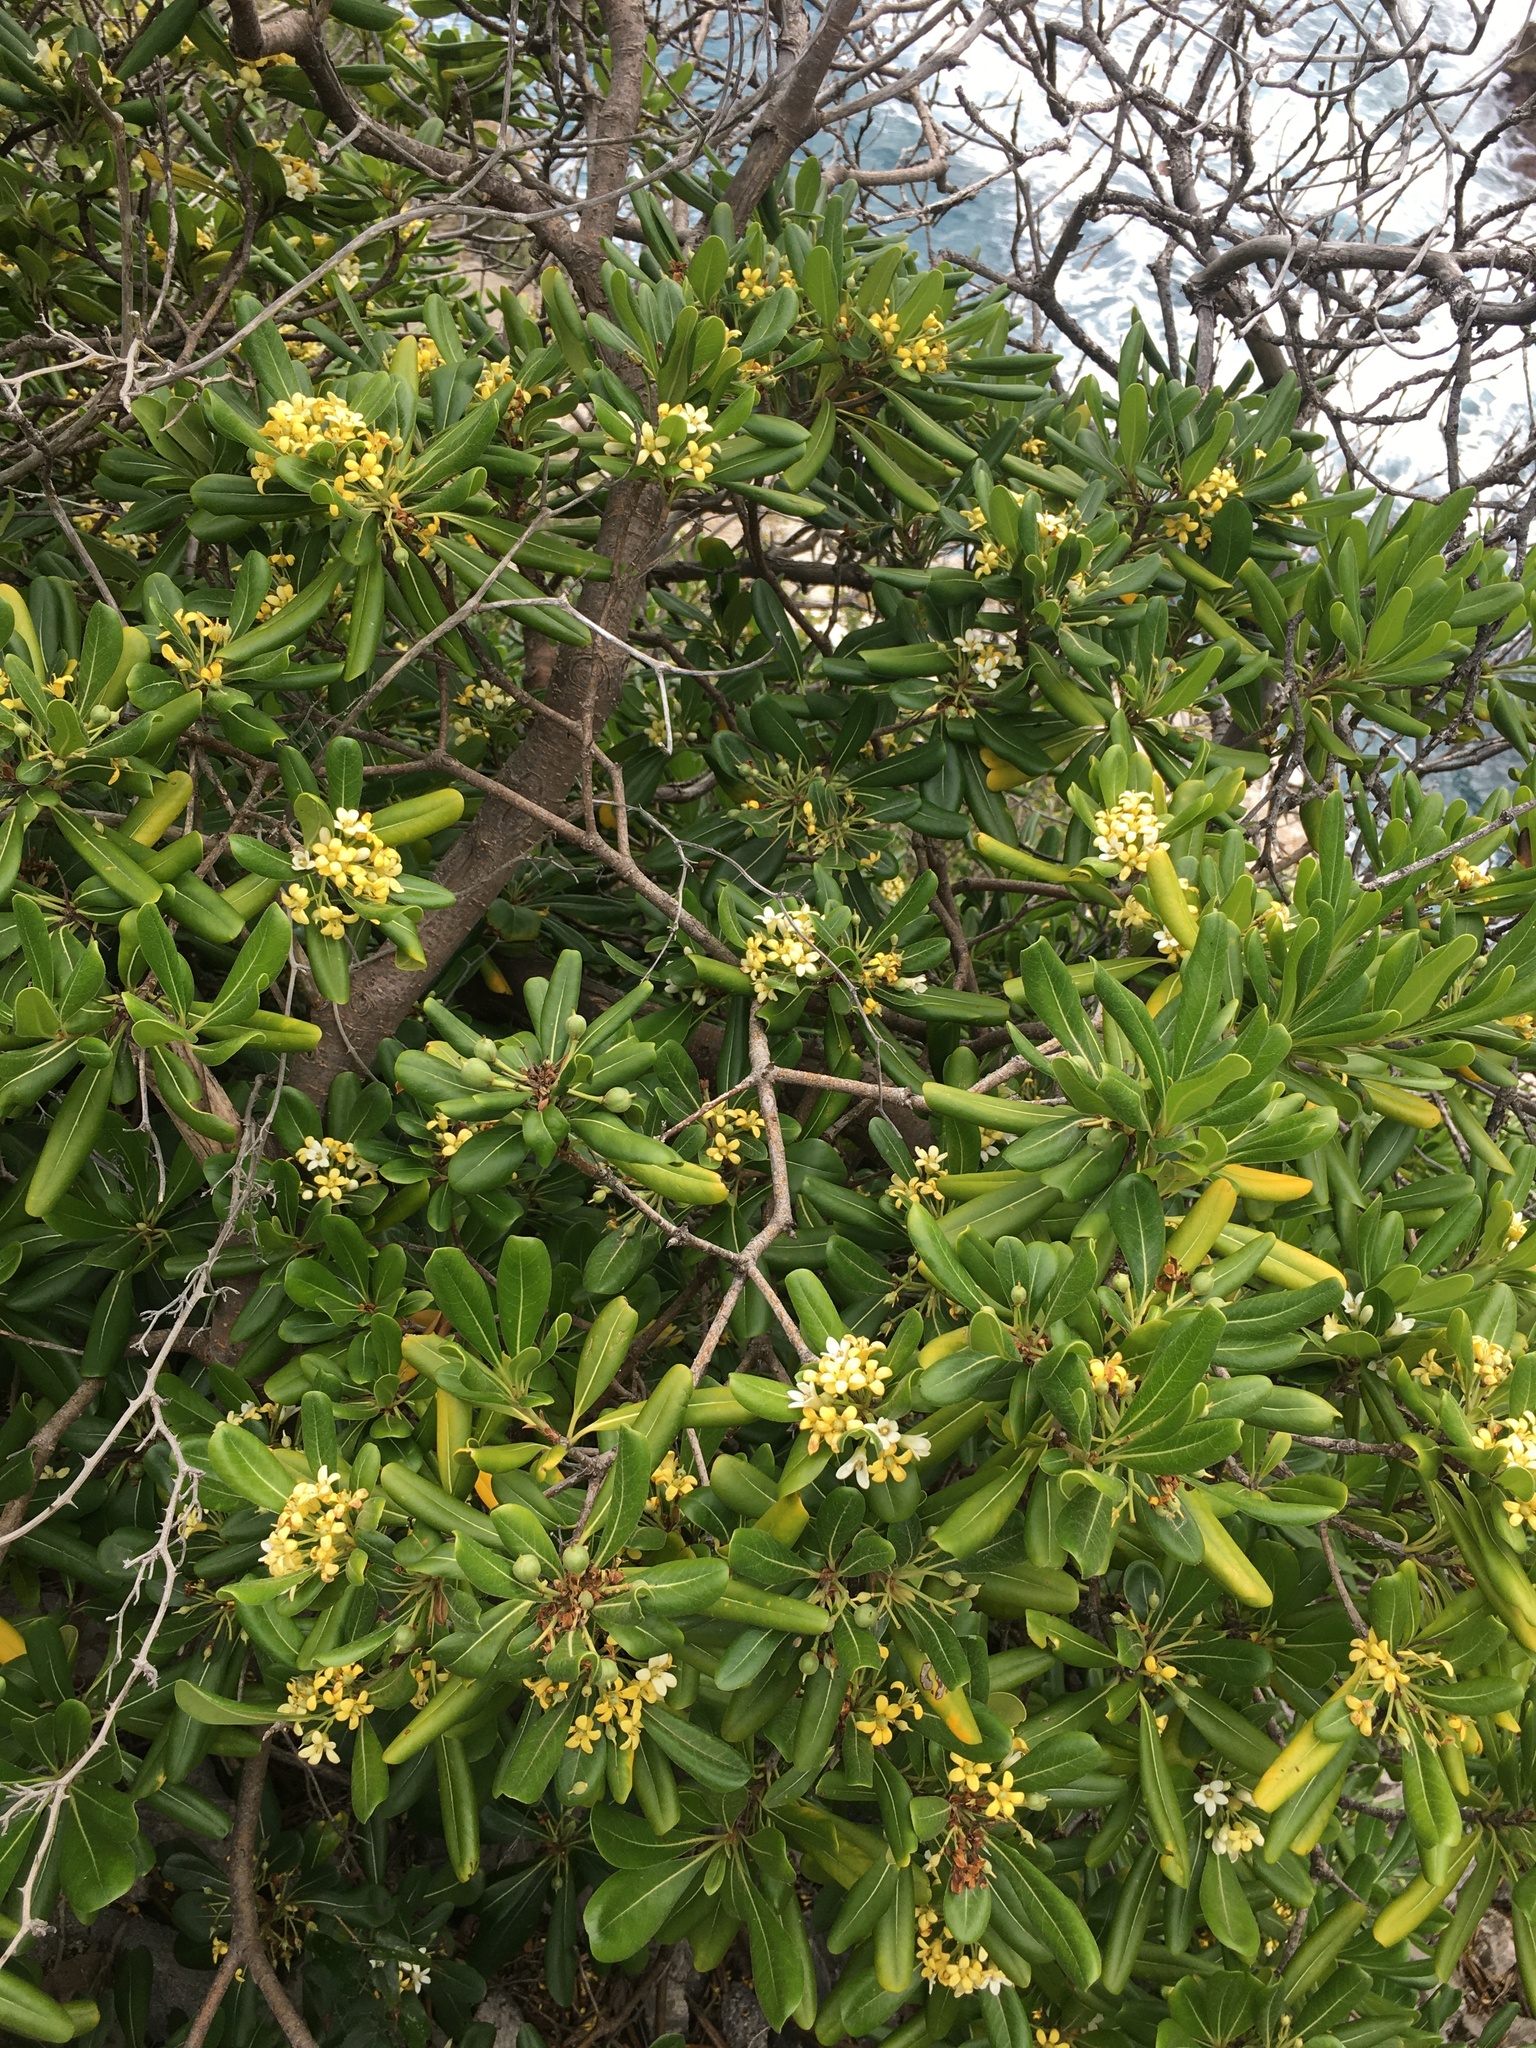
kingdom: Plantae
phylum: Tracheophyta
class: Magnoliopsida
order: Apiales
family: Pittosporaceae
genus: Pittosporum
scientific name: Pittosporum tobira
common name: Japanese cheesewood
